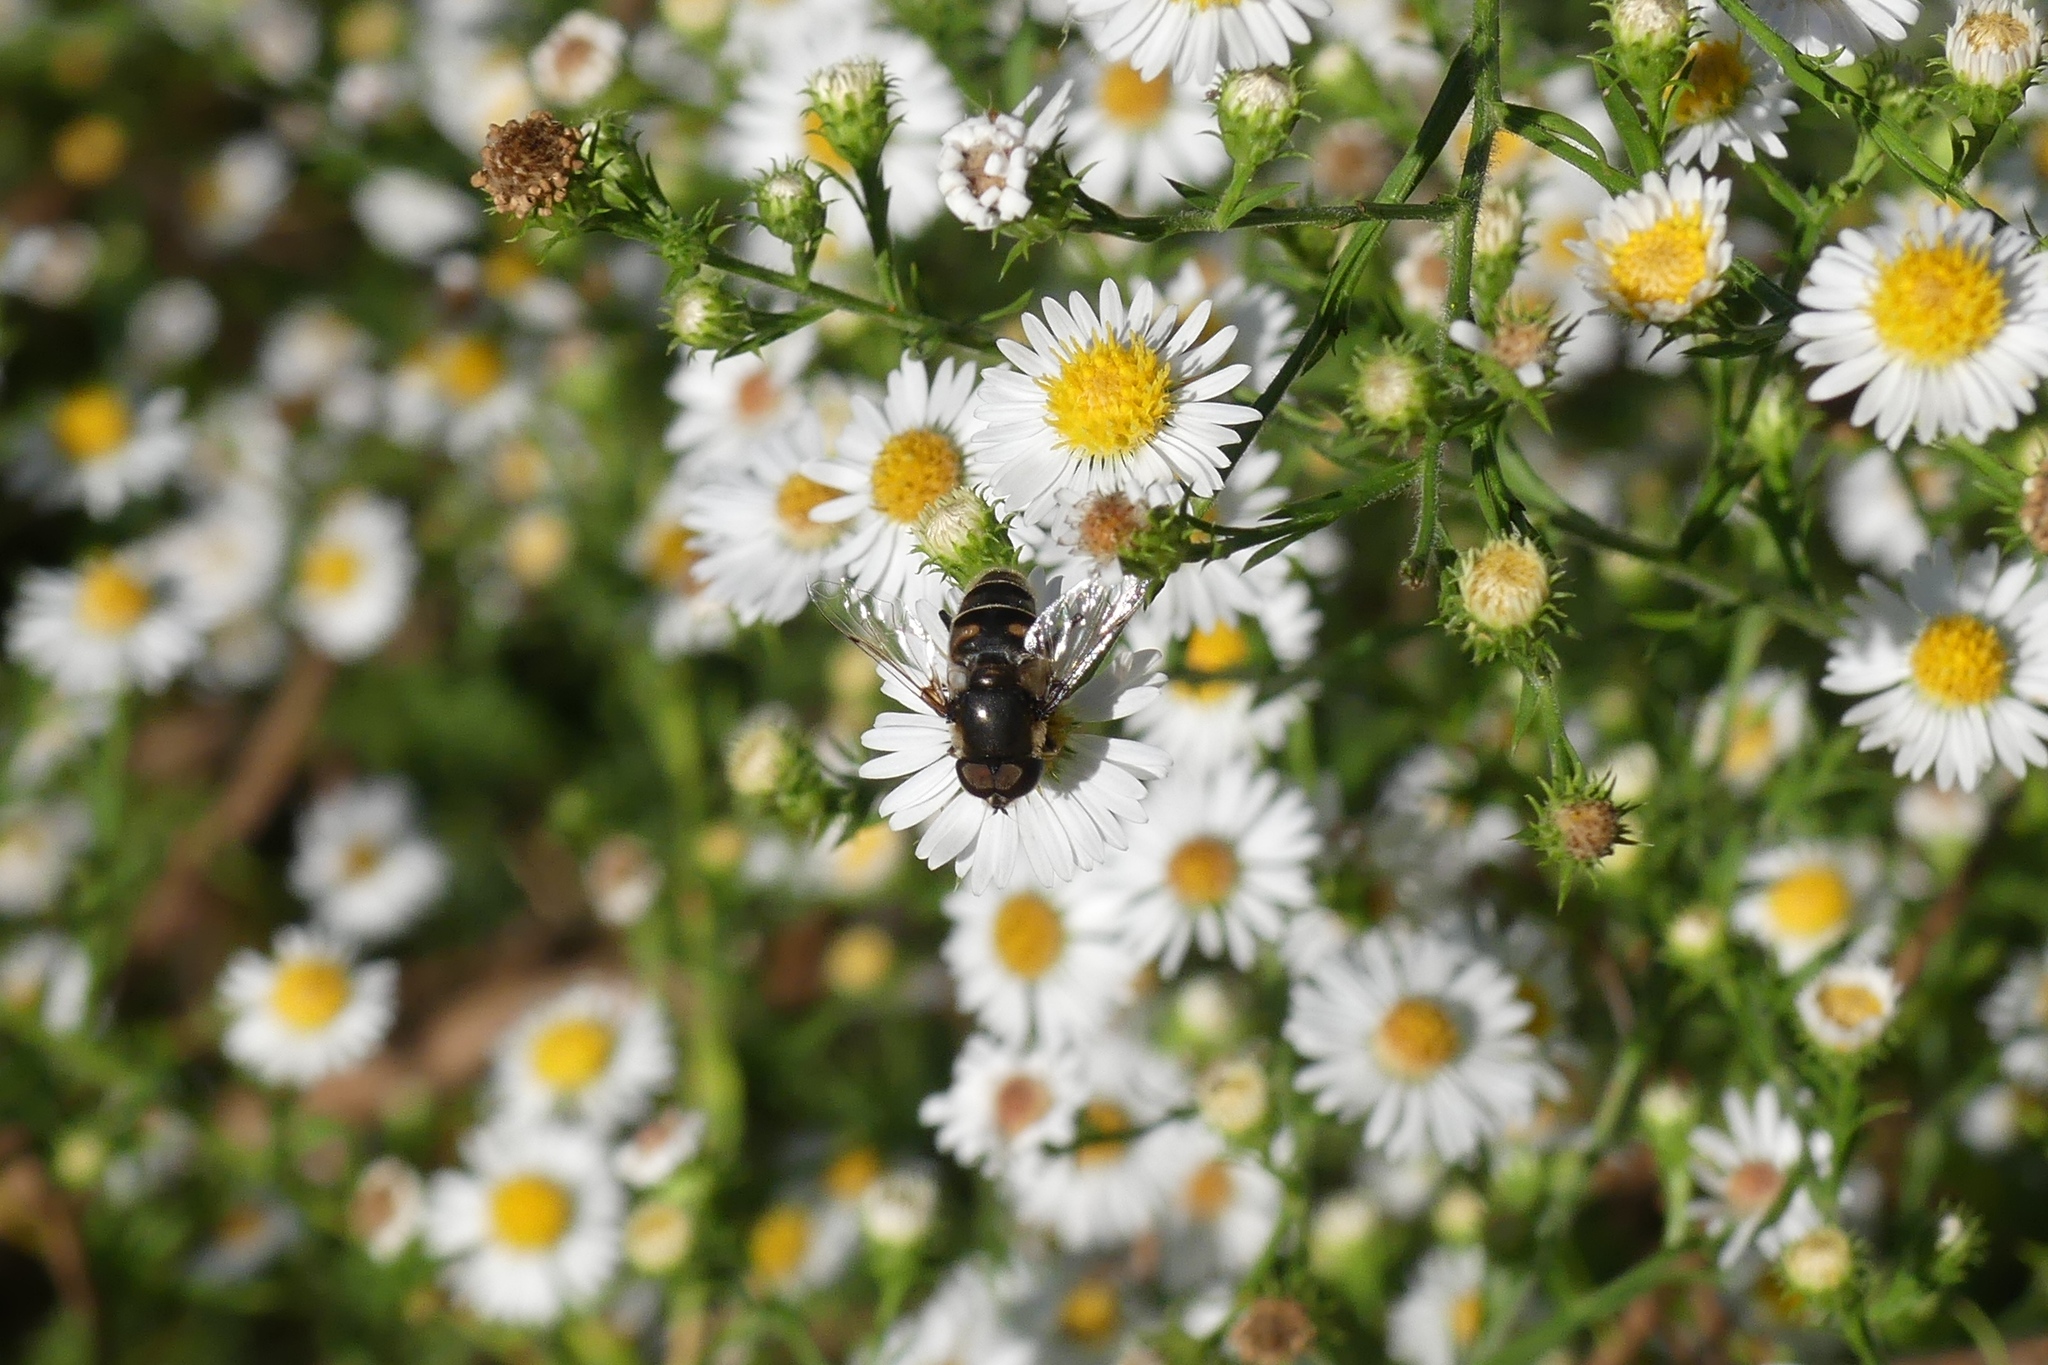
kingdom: Animalia
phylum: Arthropoda
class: Insecta
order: Diptera
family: Syrphidae
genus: Eristalis
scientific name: Eristalis dimidiata
